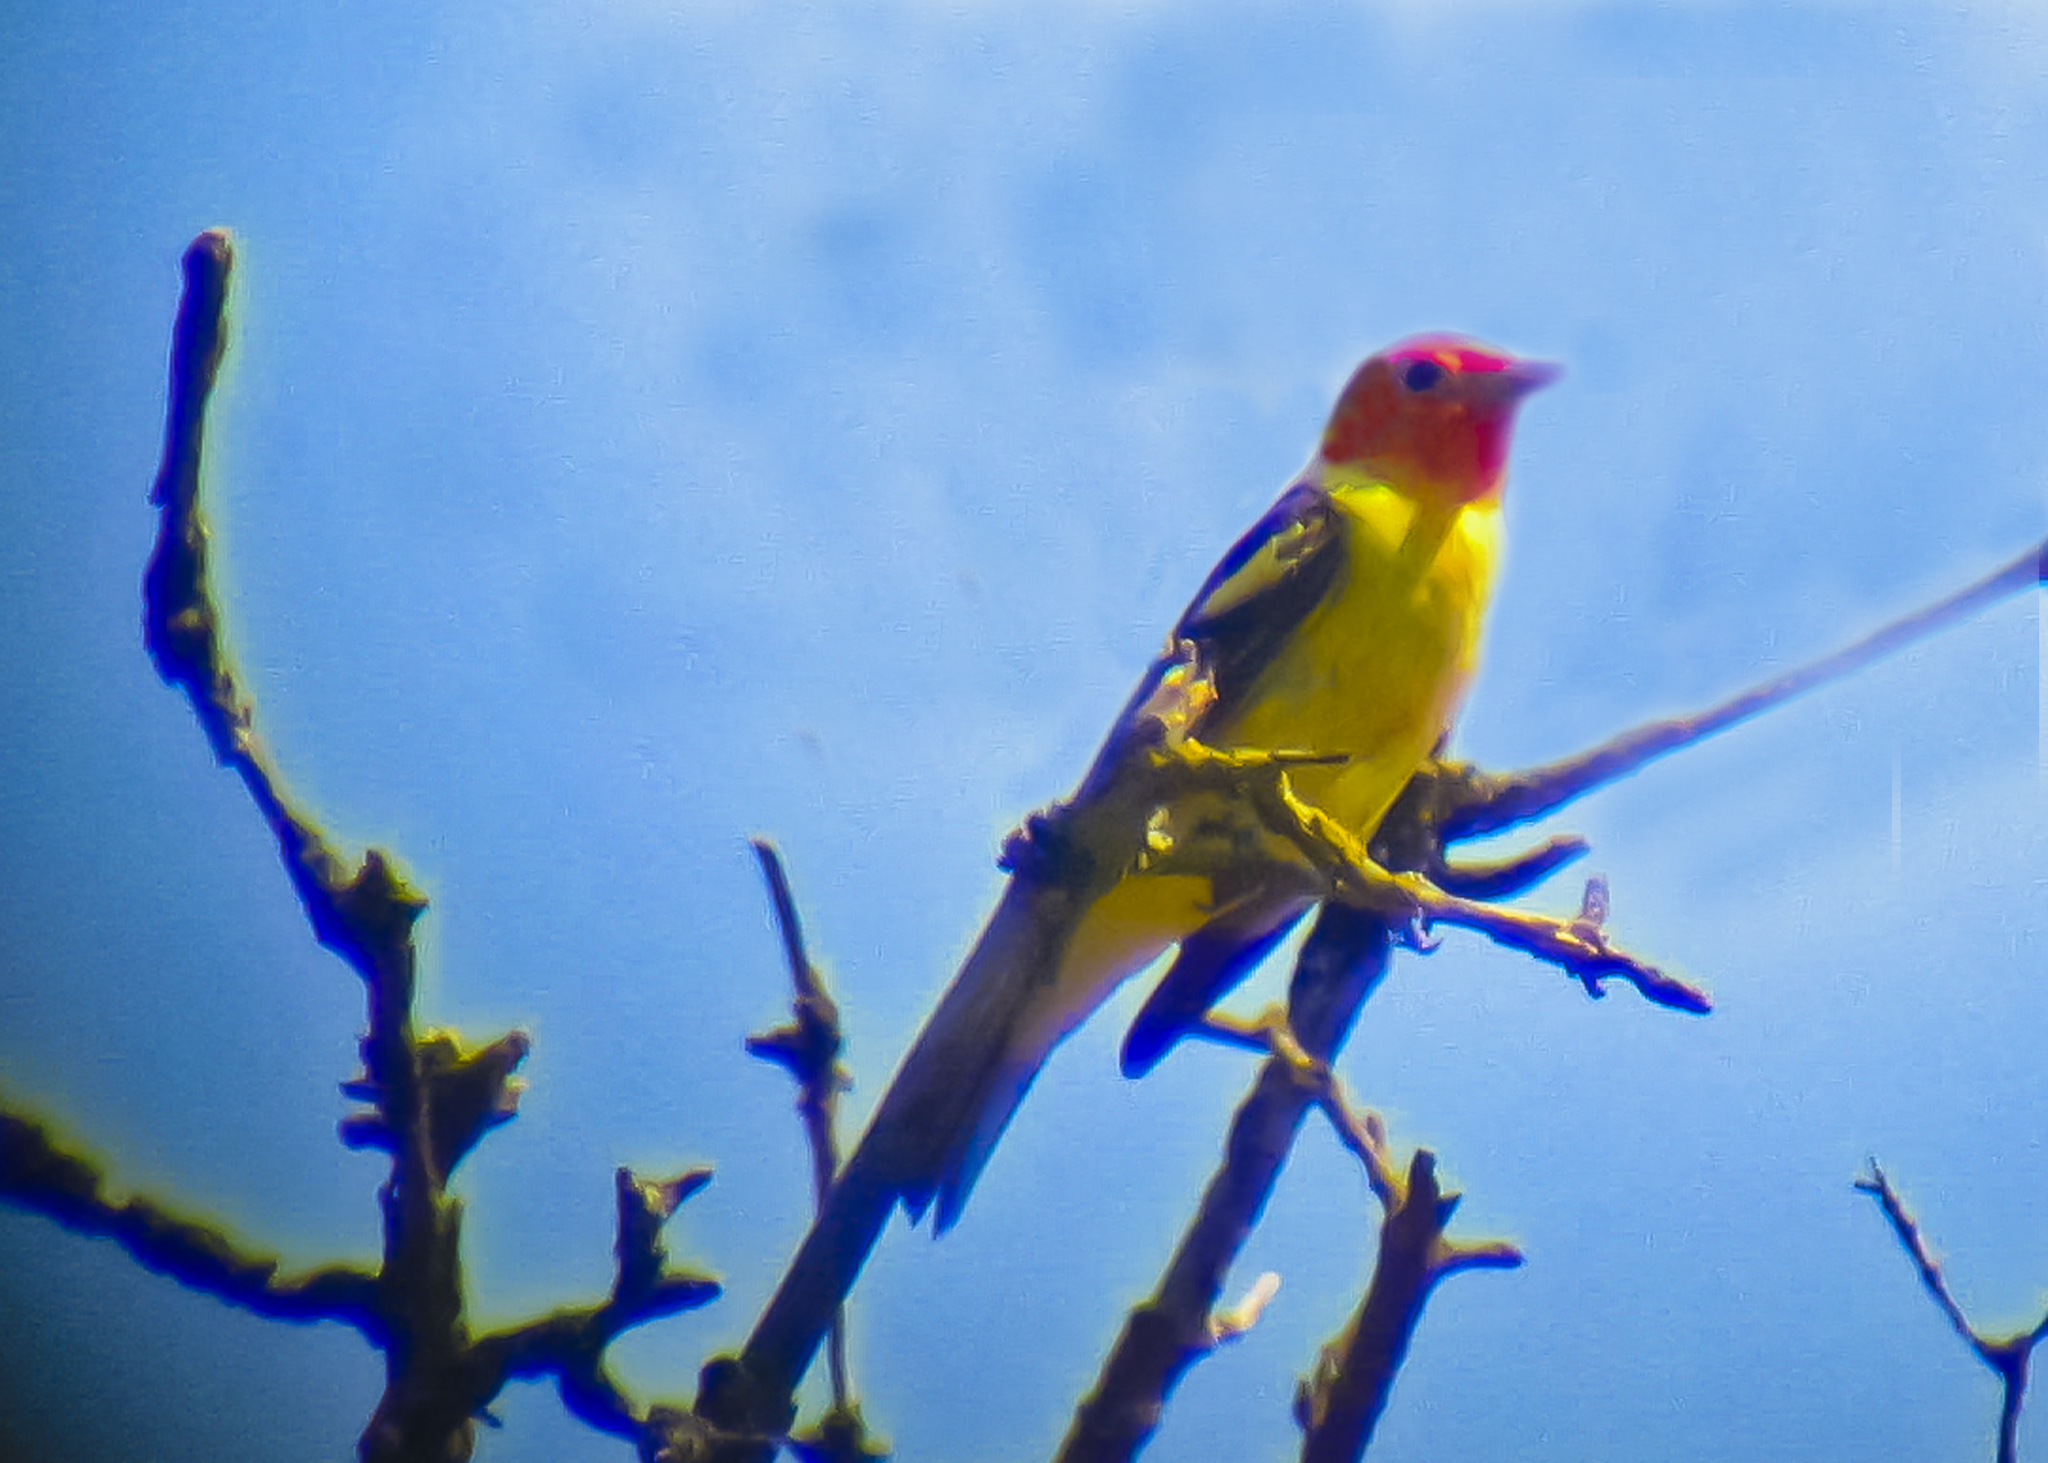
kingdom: Animalia
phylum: Chordata
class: Aves
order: Passeriformes
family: Cardinalidae
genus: Piranga
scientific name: Piranga ludoviciana
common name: Western tanager
